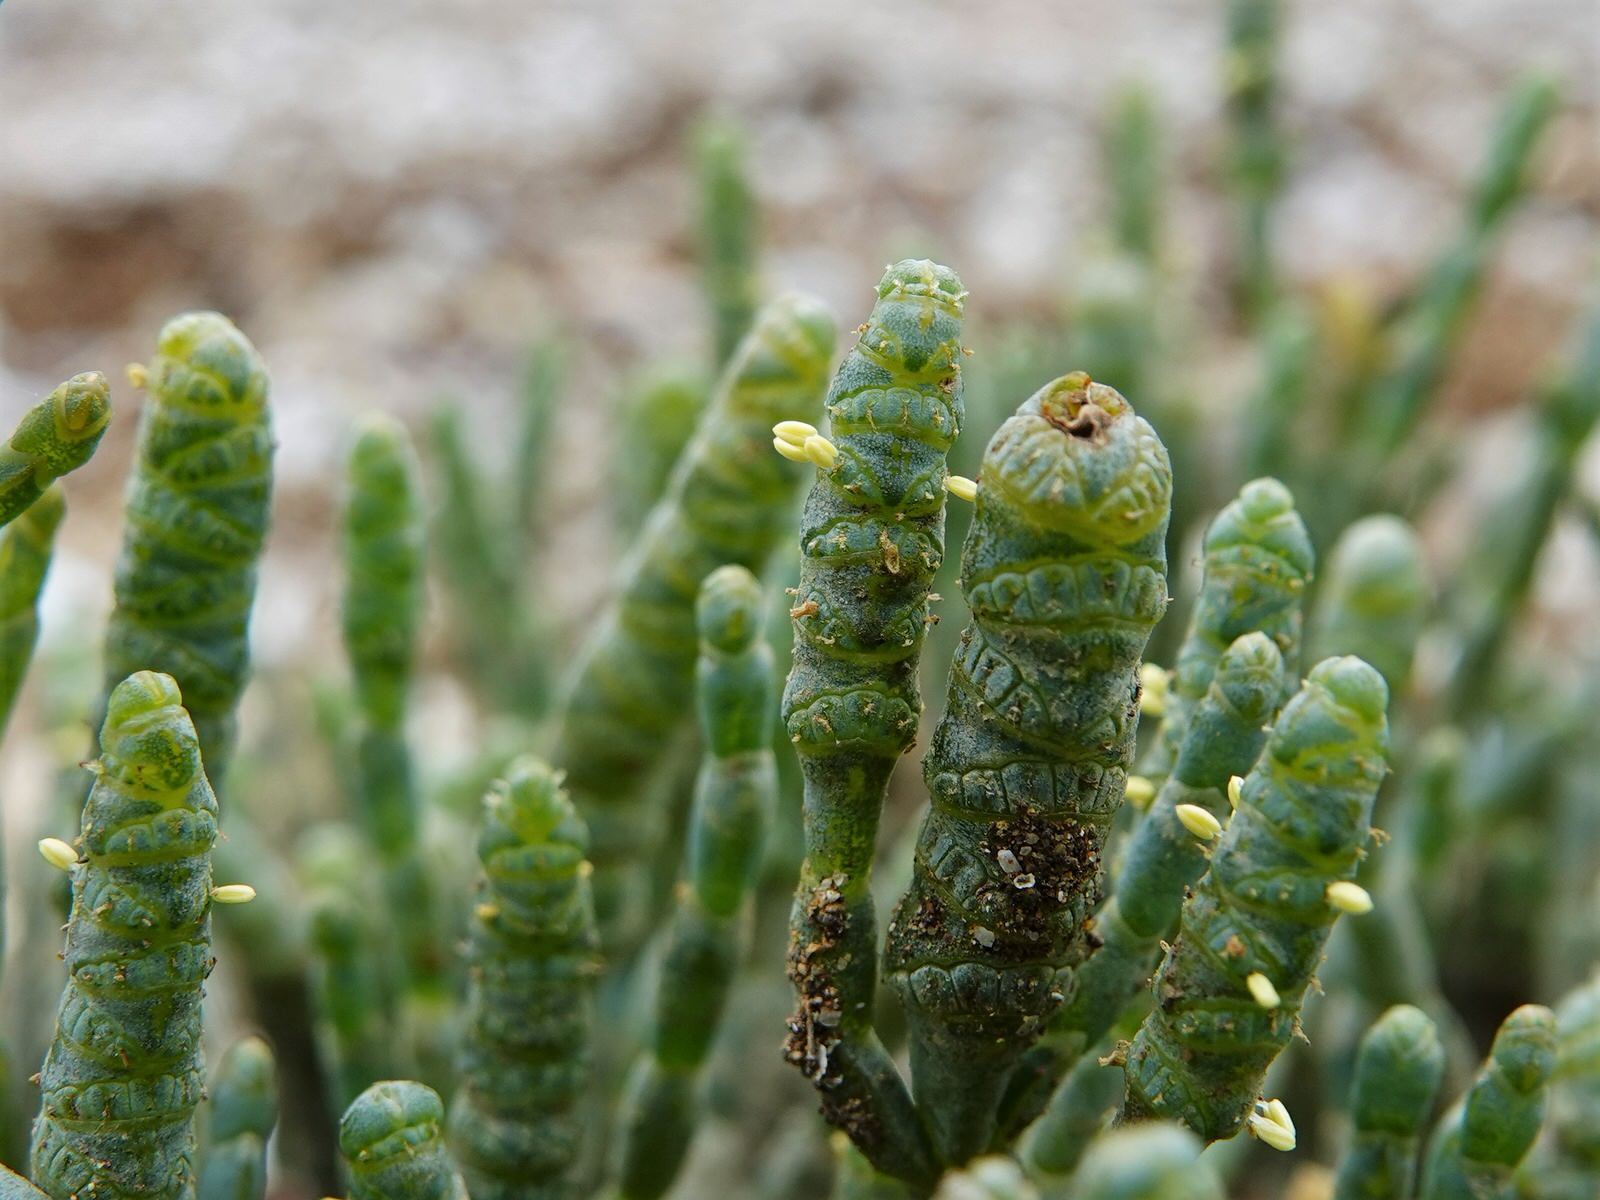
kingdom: Plantae
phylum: Tracheophyta
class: Magnoliopsida
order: Caryophyllales
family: Amaranthaceae
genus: Salicornia
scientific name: Salicornia quinqueflora
